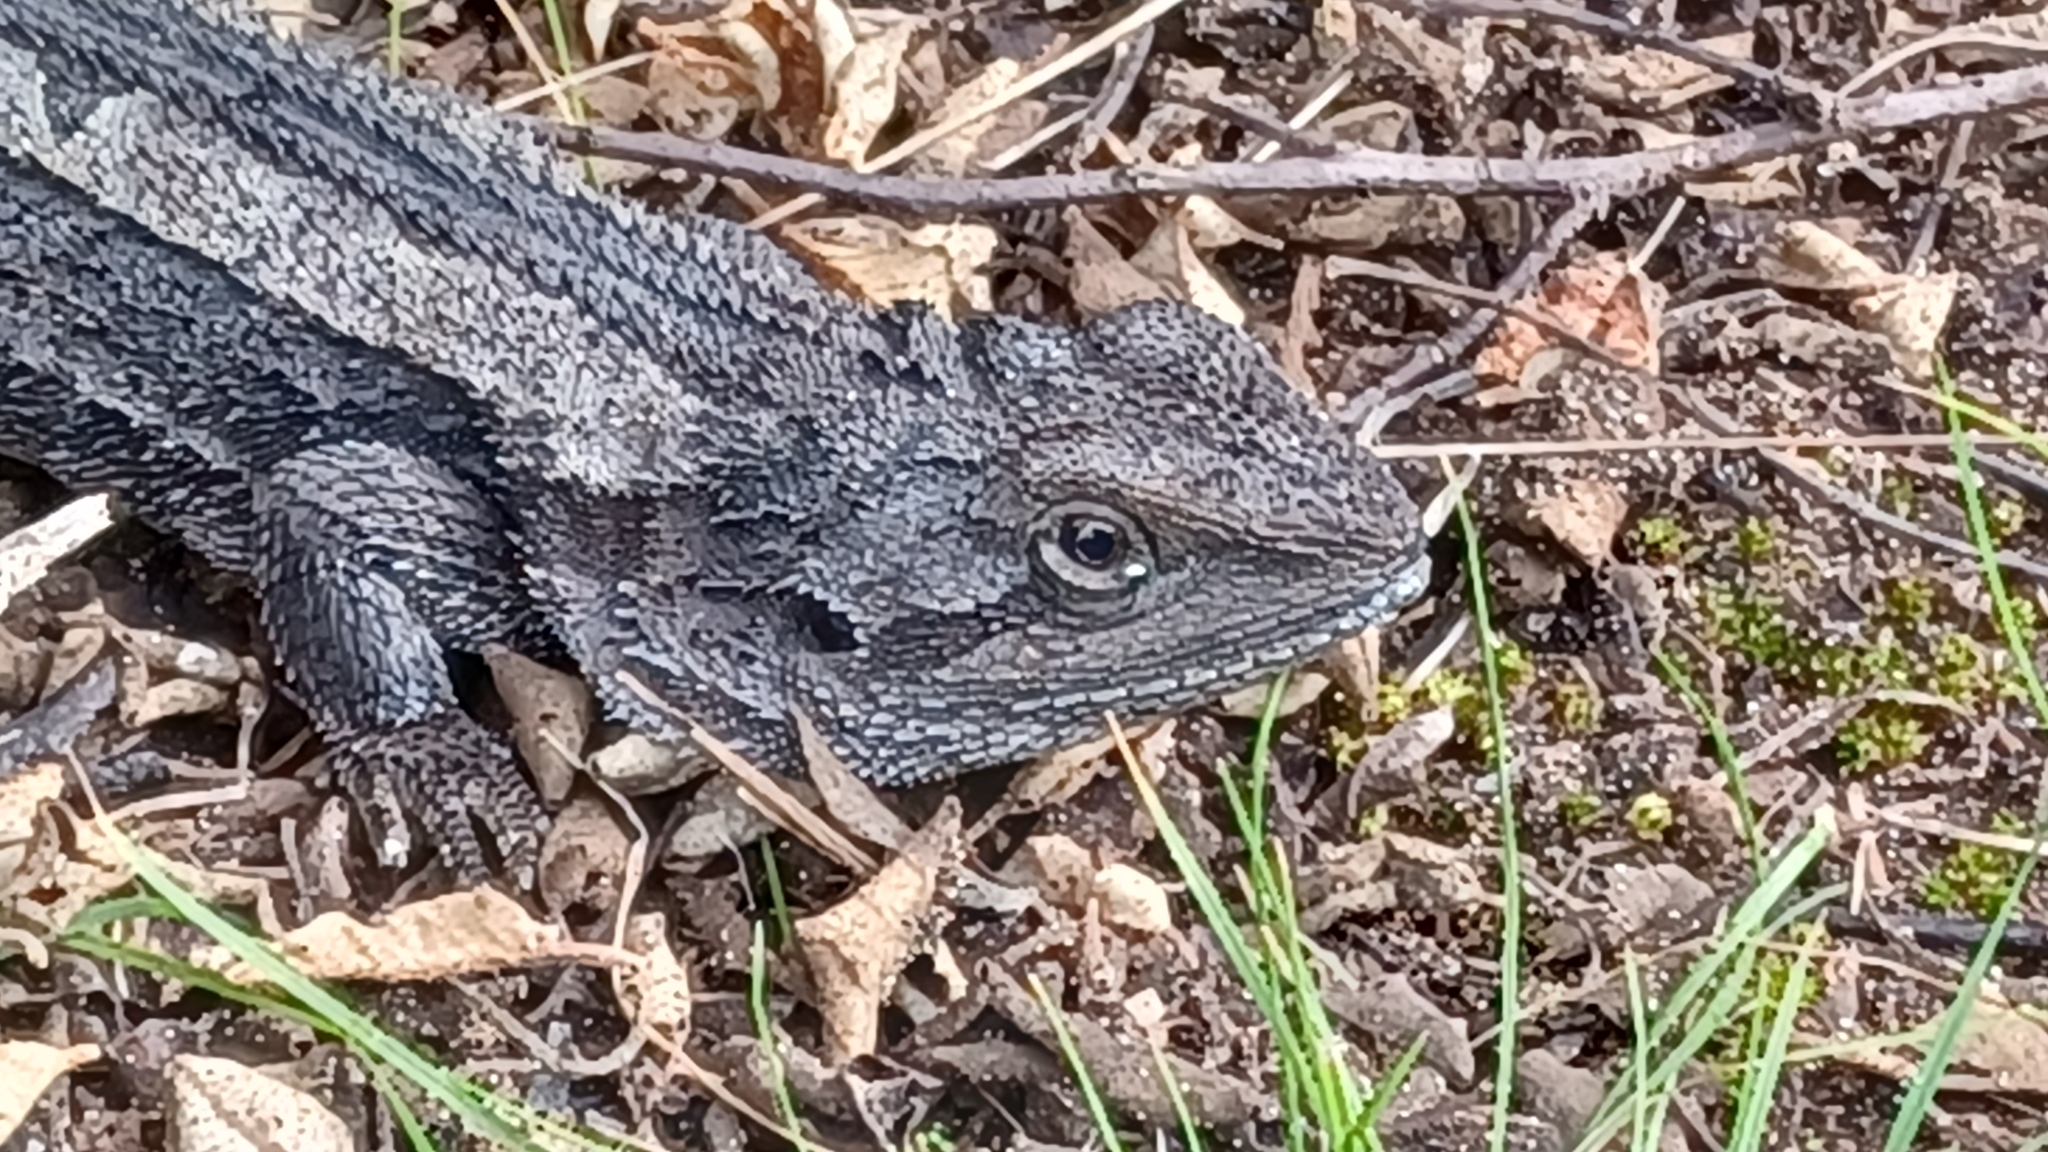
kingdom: Animalia
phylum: Chordata
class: Squamata
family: Agamidae
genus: Amphibolurus
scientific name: Amphibolurus muricatus
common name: Jacky lizard
